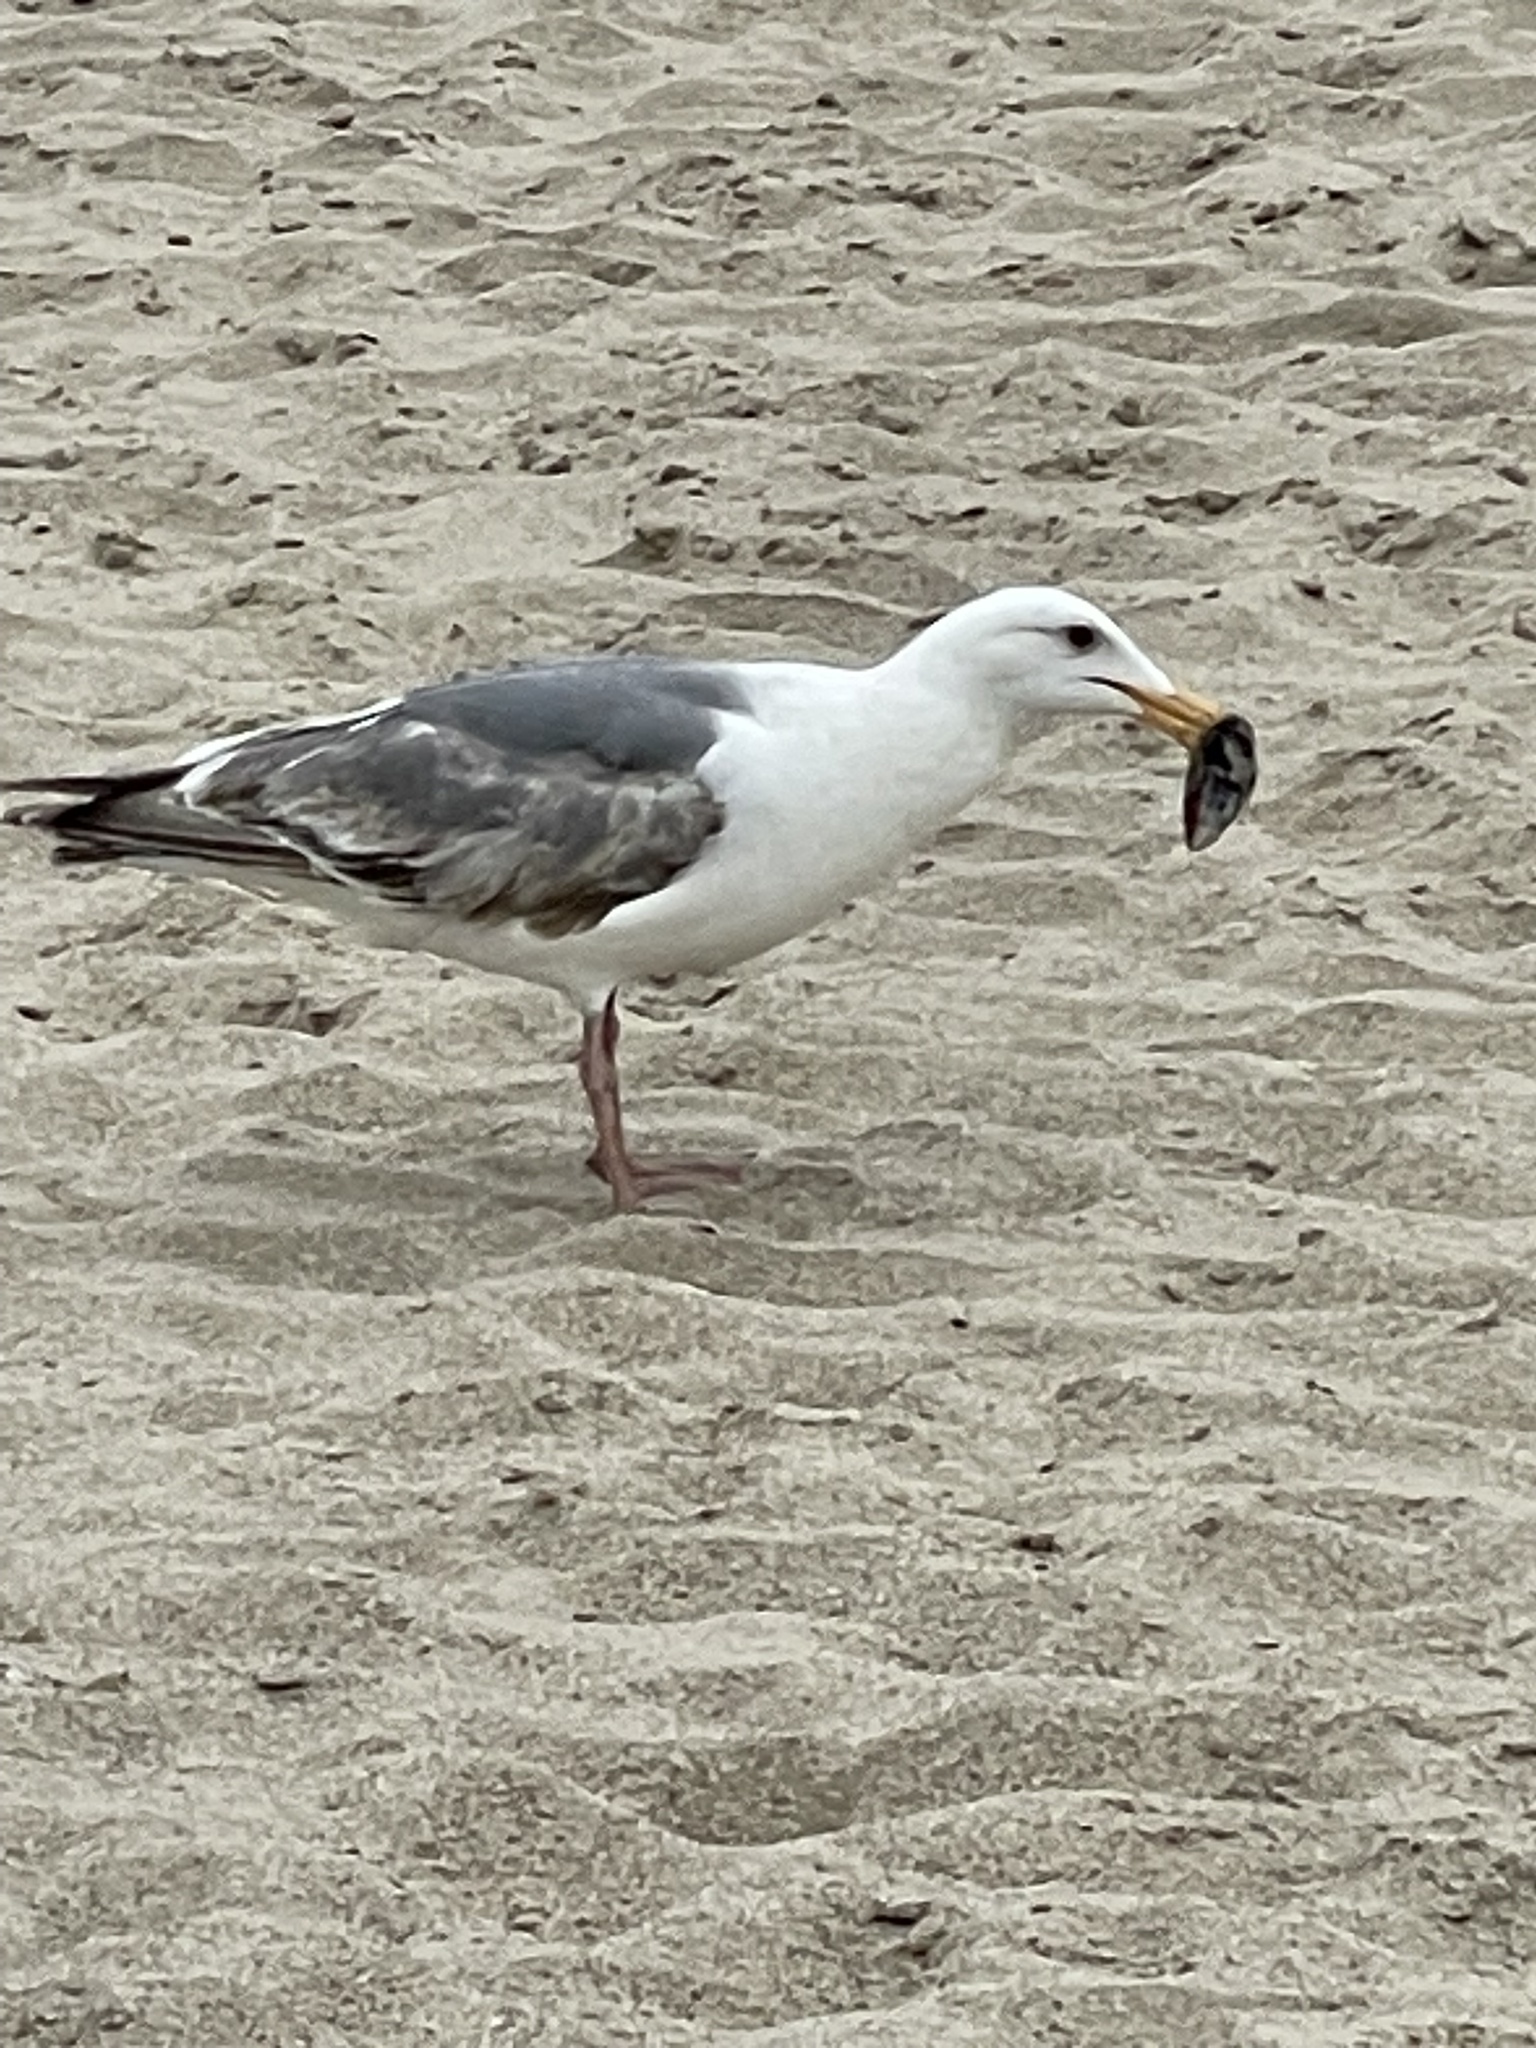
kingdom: Animalia
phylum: Chordata
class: Aves
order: Charadriiformes
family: Laridae
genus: Larus
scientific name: Larus occidentalis
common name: Western gull
